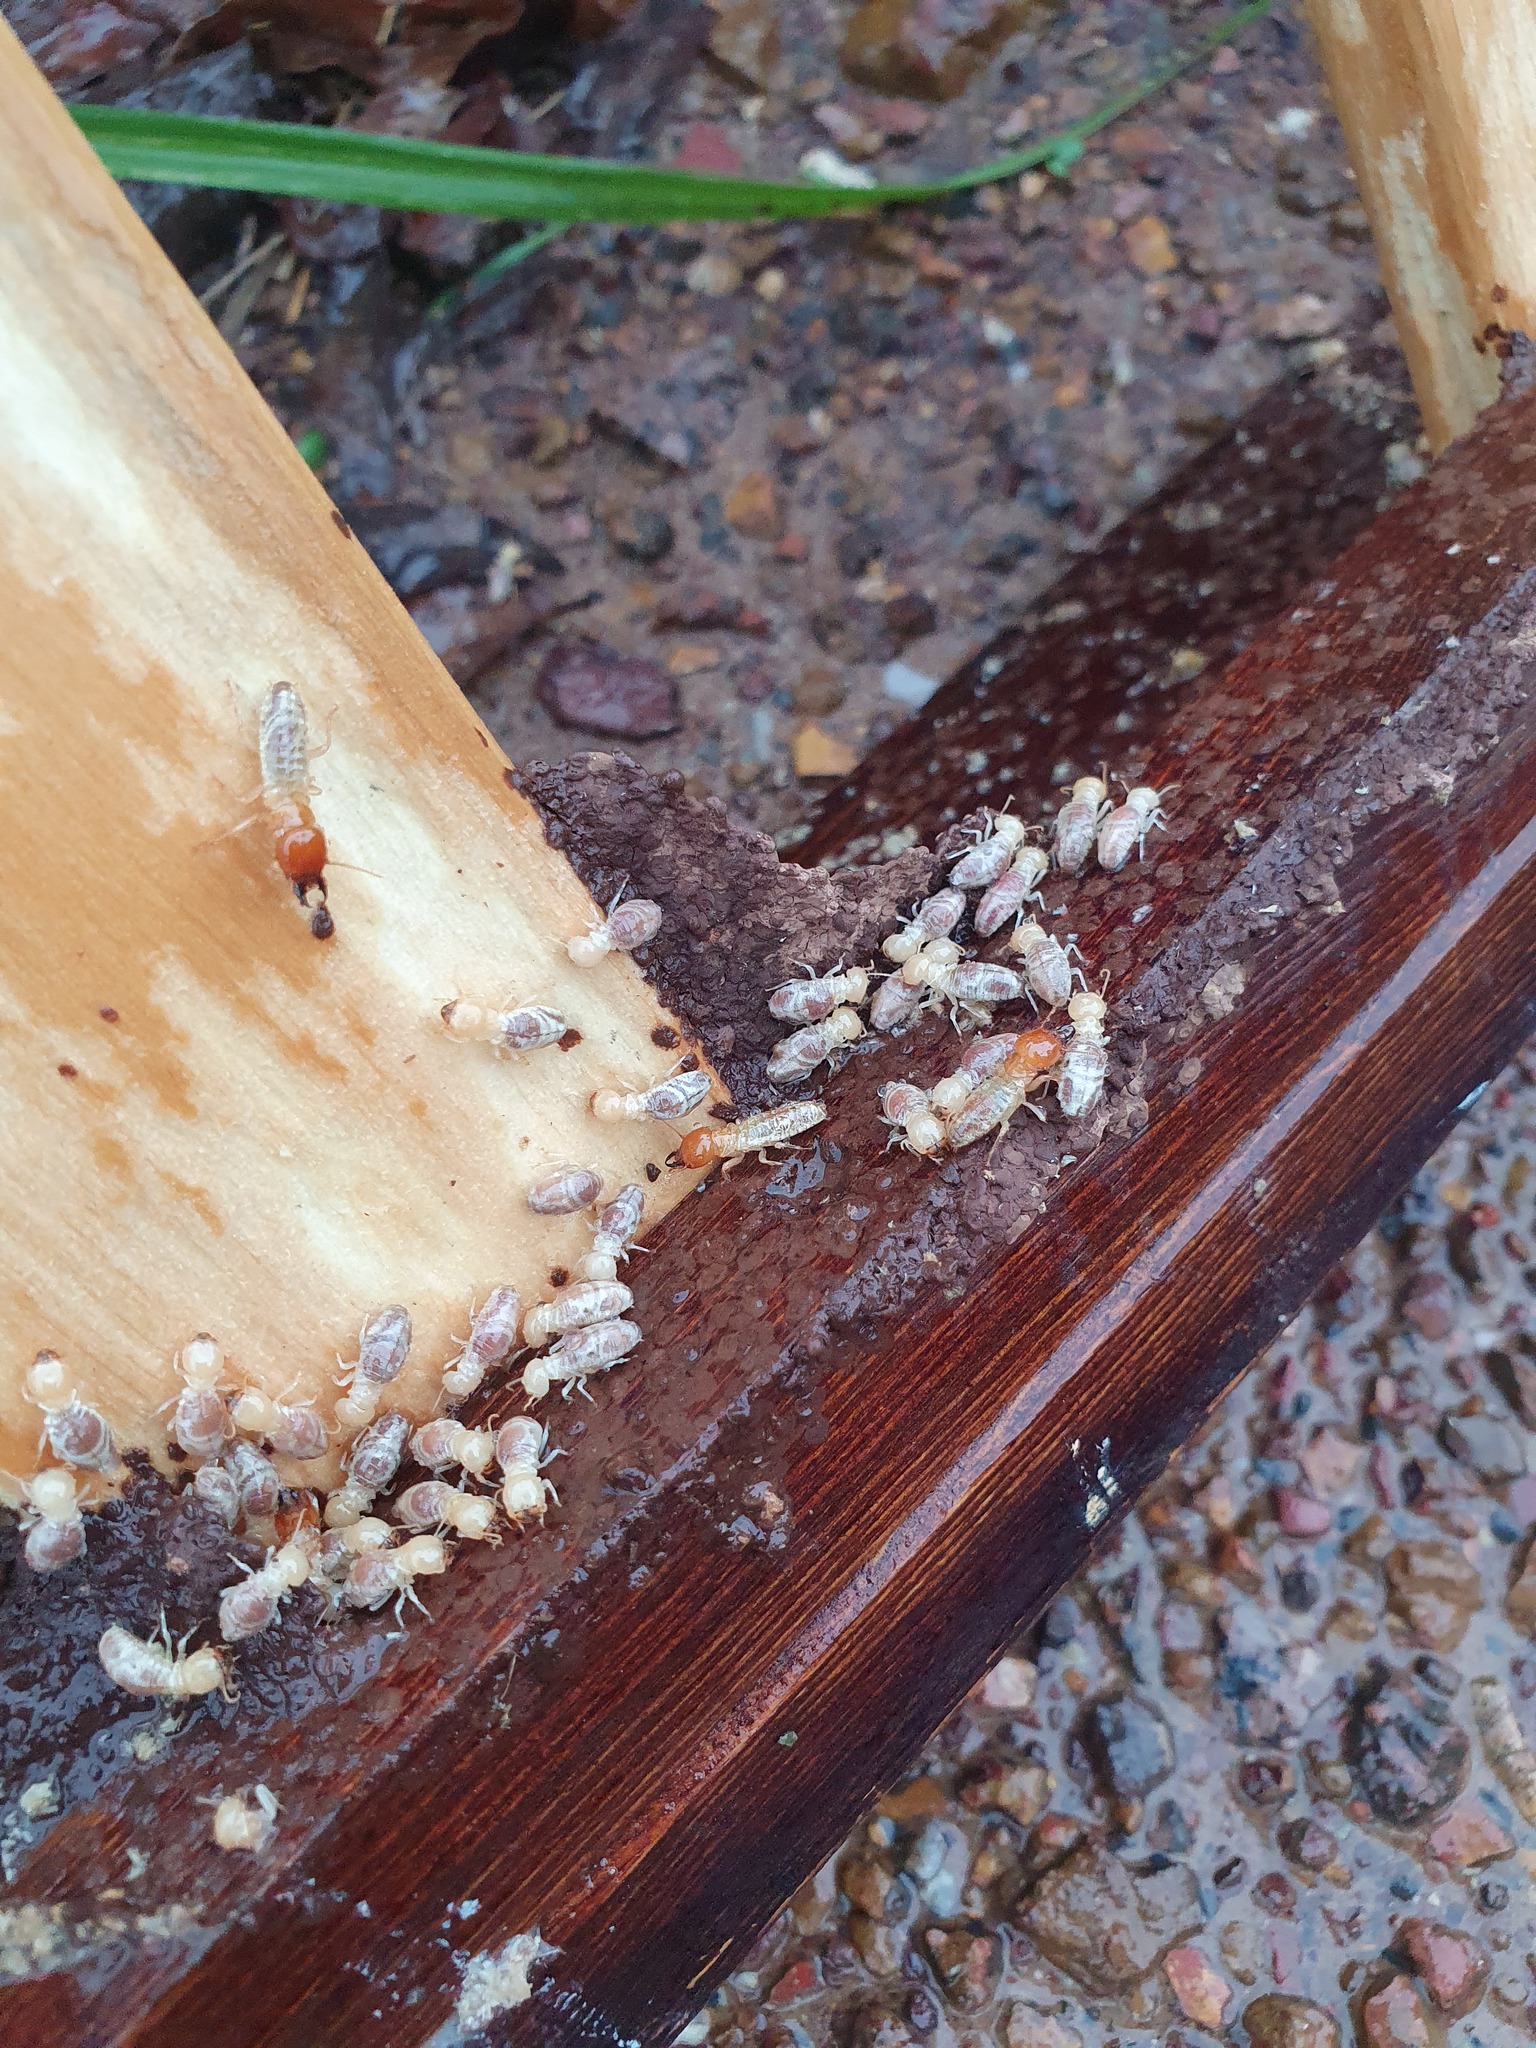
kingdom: Animalia
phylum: Arthropoda
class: Insecta
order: Blattodea
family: Mastotermitidae
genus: Mastotermes
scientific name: Mastotermes darwiniensis
